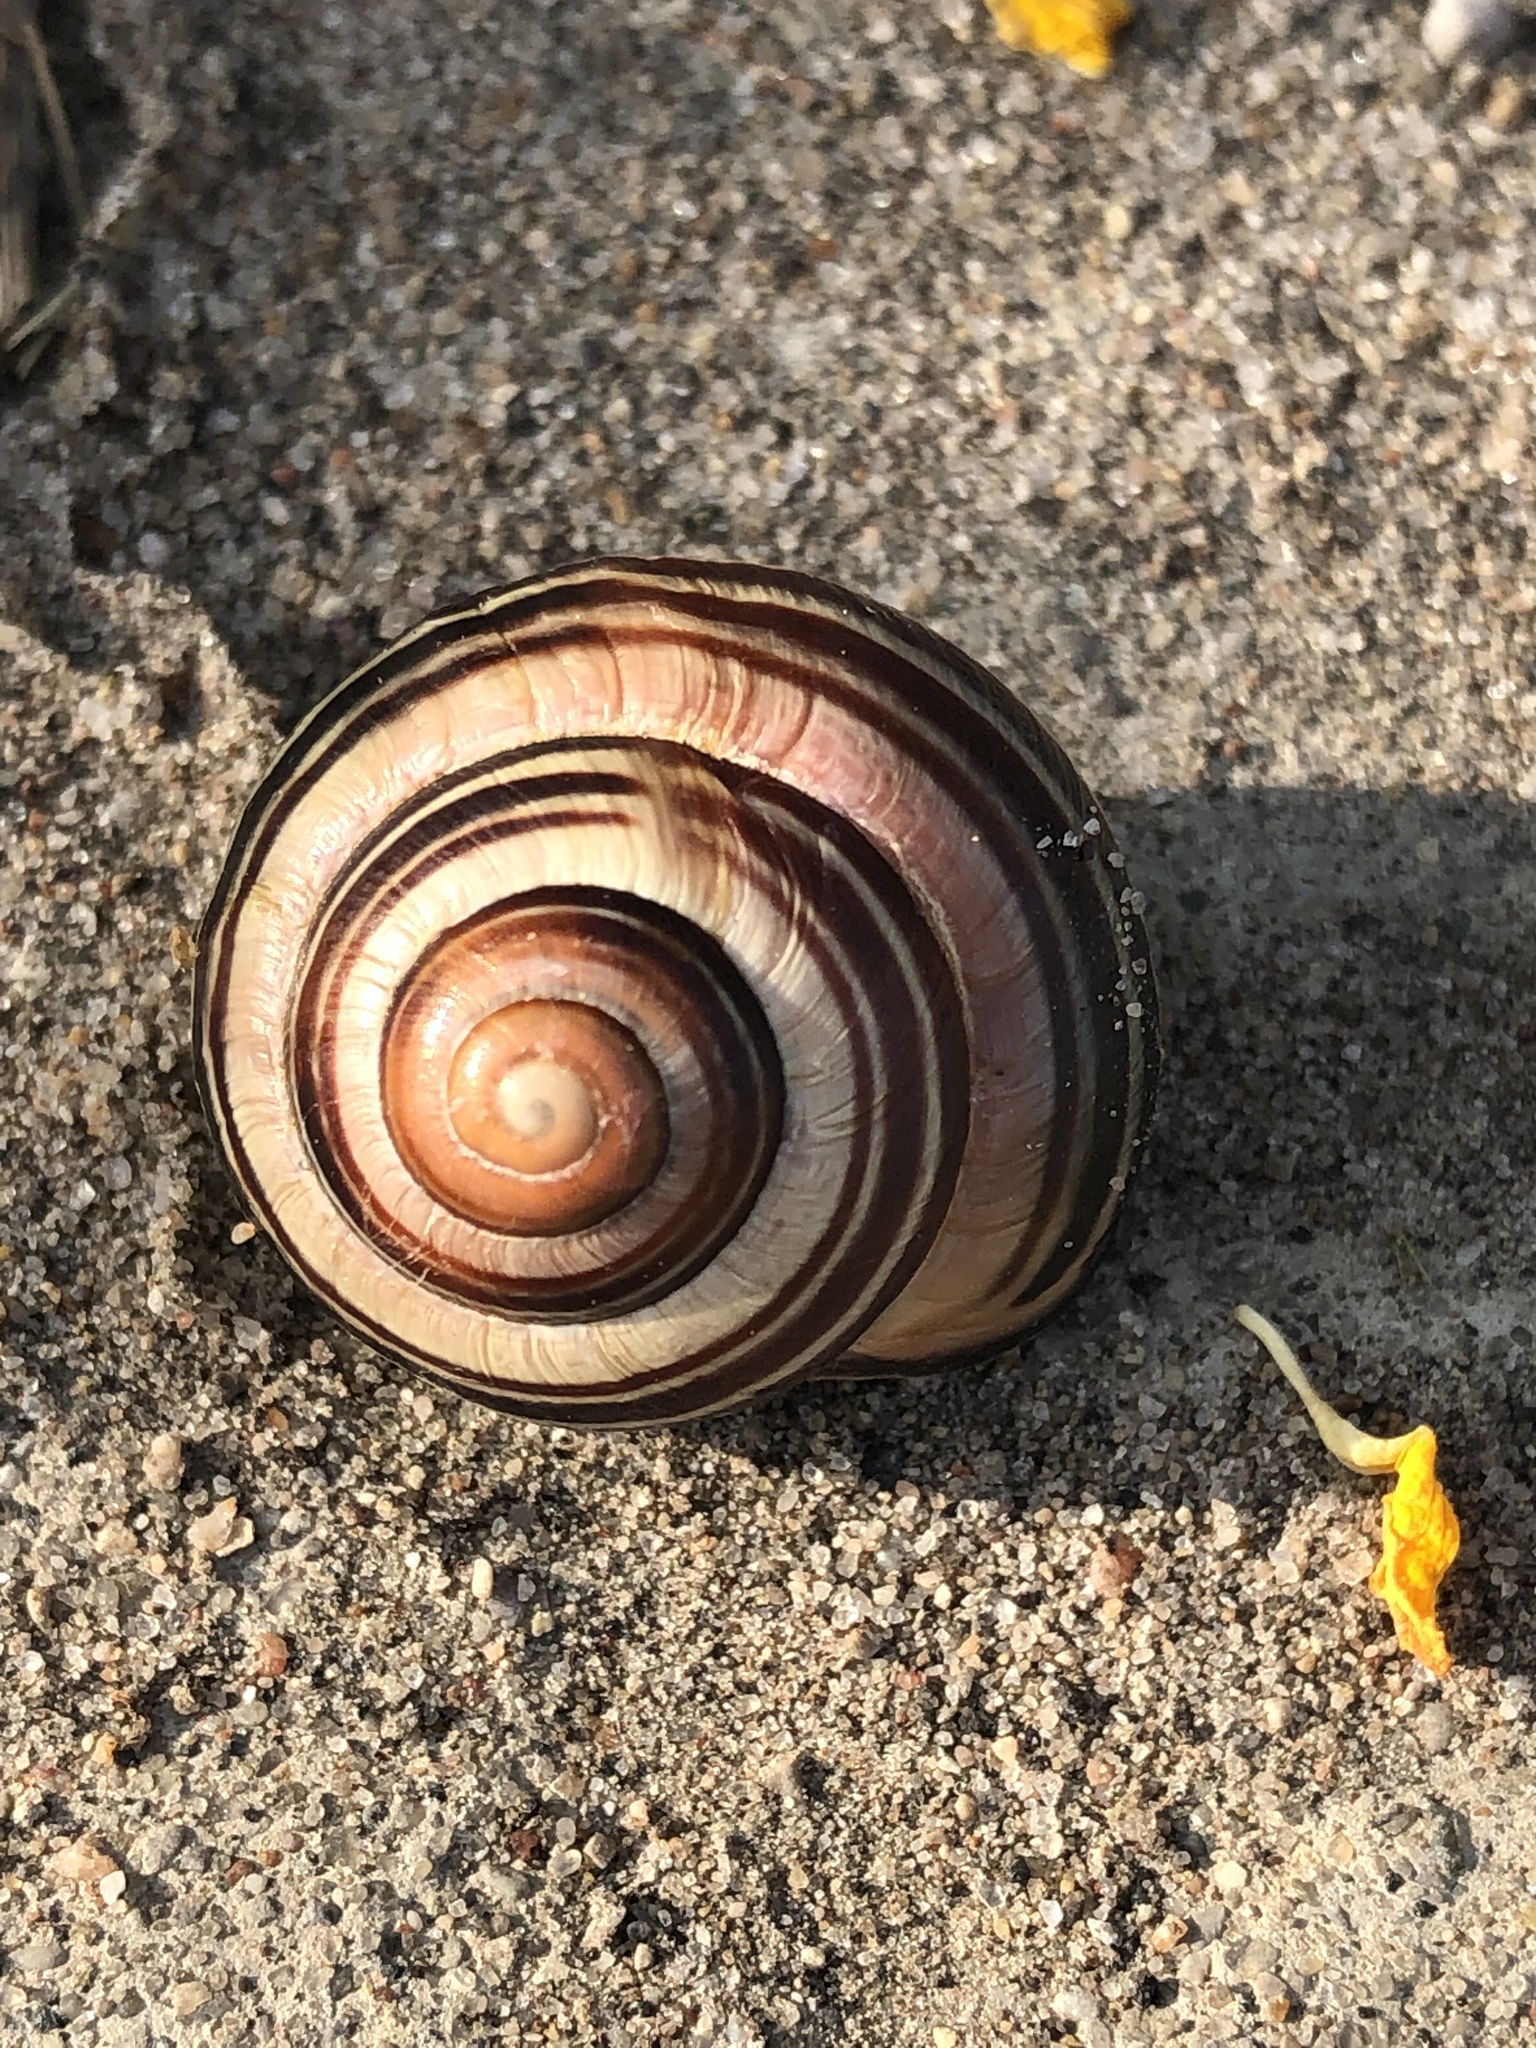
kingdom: Animalia
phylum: Mollusca
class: Gastropoda
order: Stylommatophora
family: Helicidae
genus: Cepaea
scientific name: Cepaea nemoralis
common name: Grovesnail
